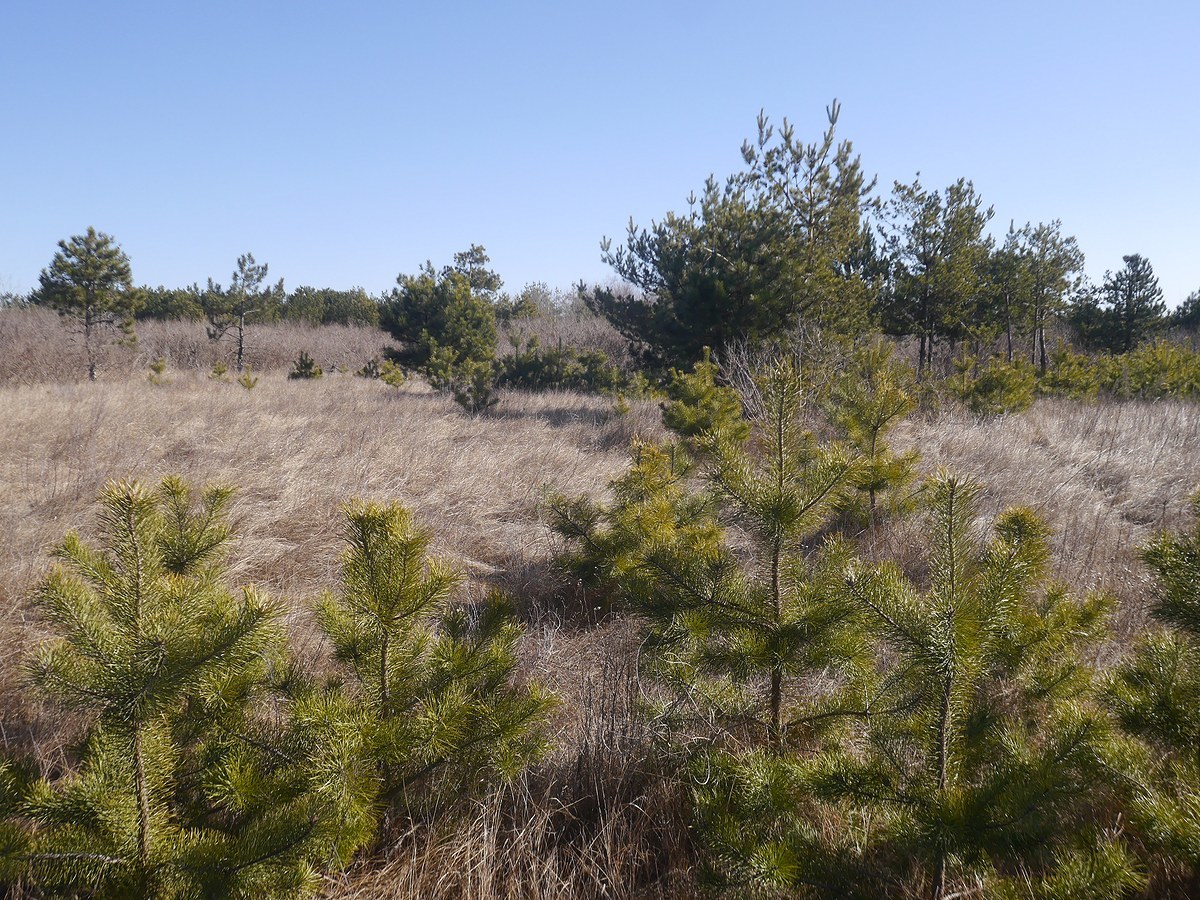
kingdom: Plantae
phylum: Tracheophyta
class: Pinopsida
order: Pinales
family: Pinaceae
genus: Pinus
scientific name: Pinus sylvestris
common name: Scots pine
